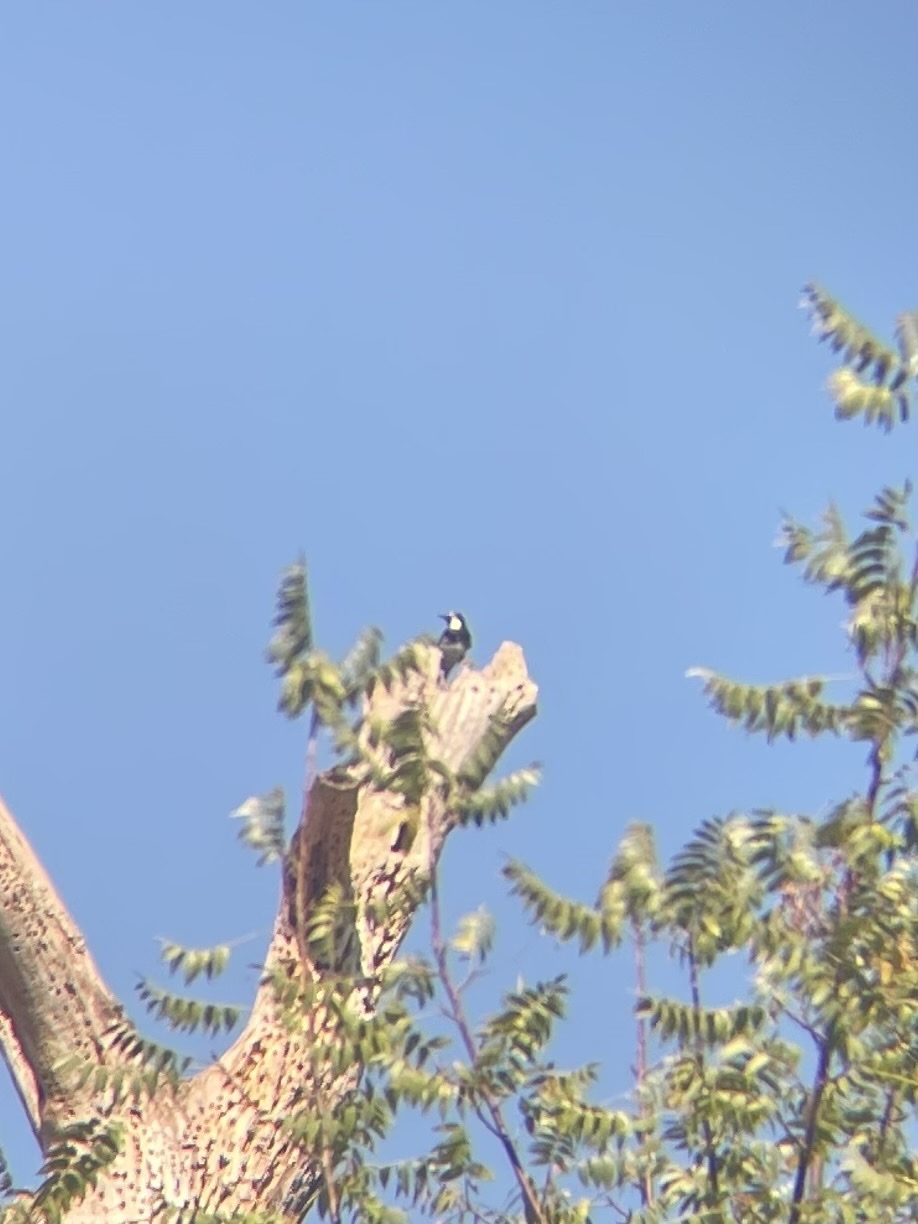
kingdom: Animalia
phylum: Chordata
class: Aves
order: Piciformes
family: Picidae
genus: Melanerpes
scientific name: Melanerpes formicivorus
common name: Acorn woodpecker
